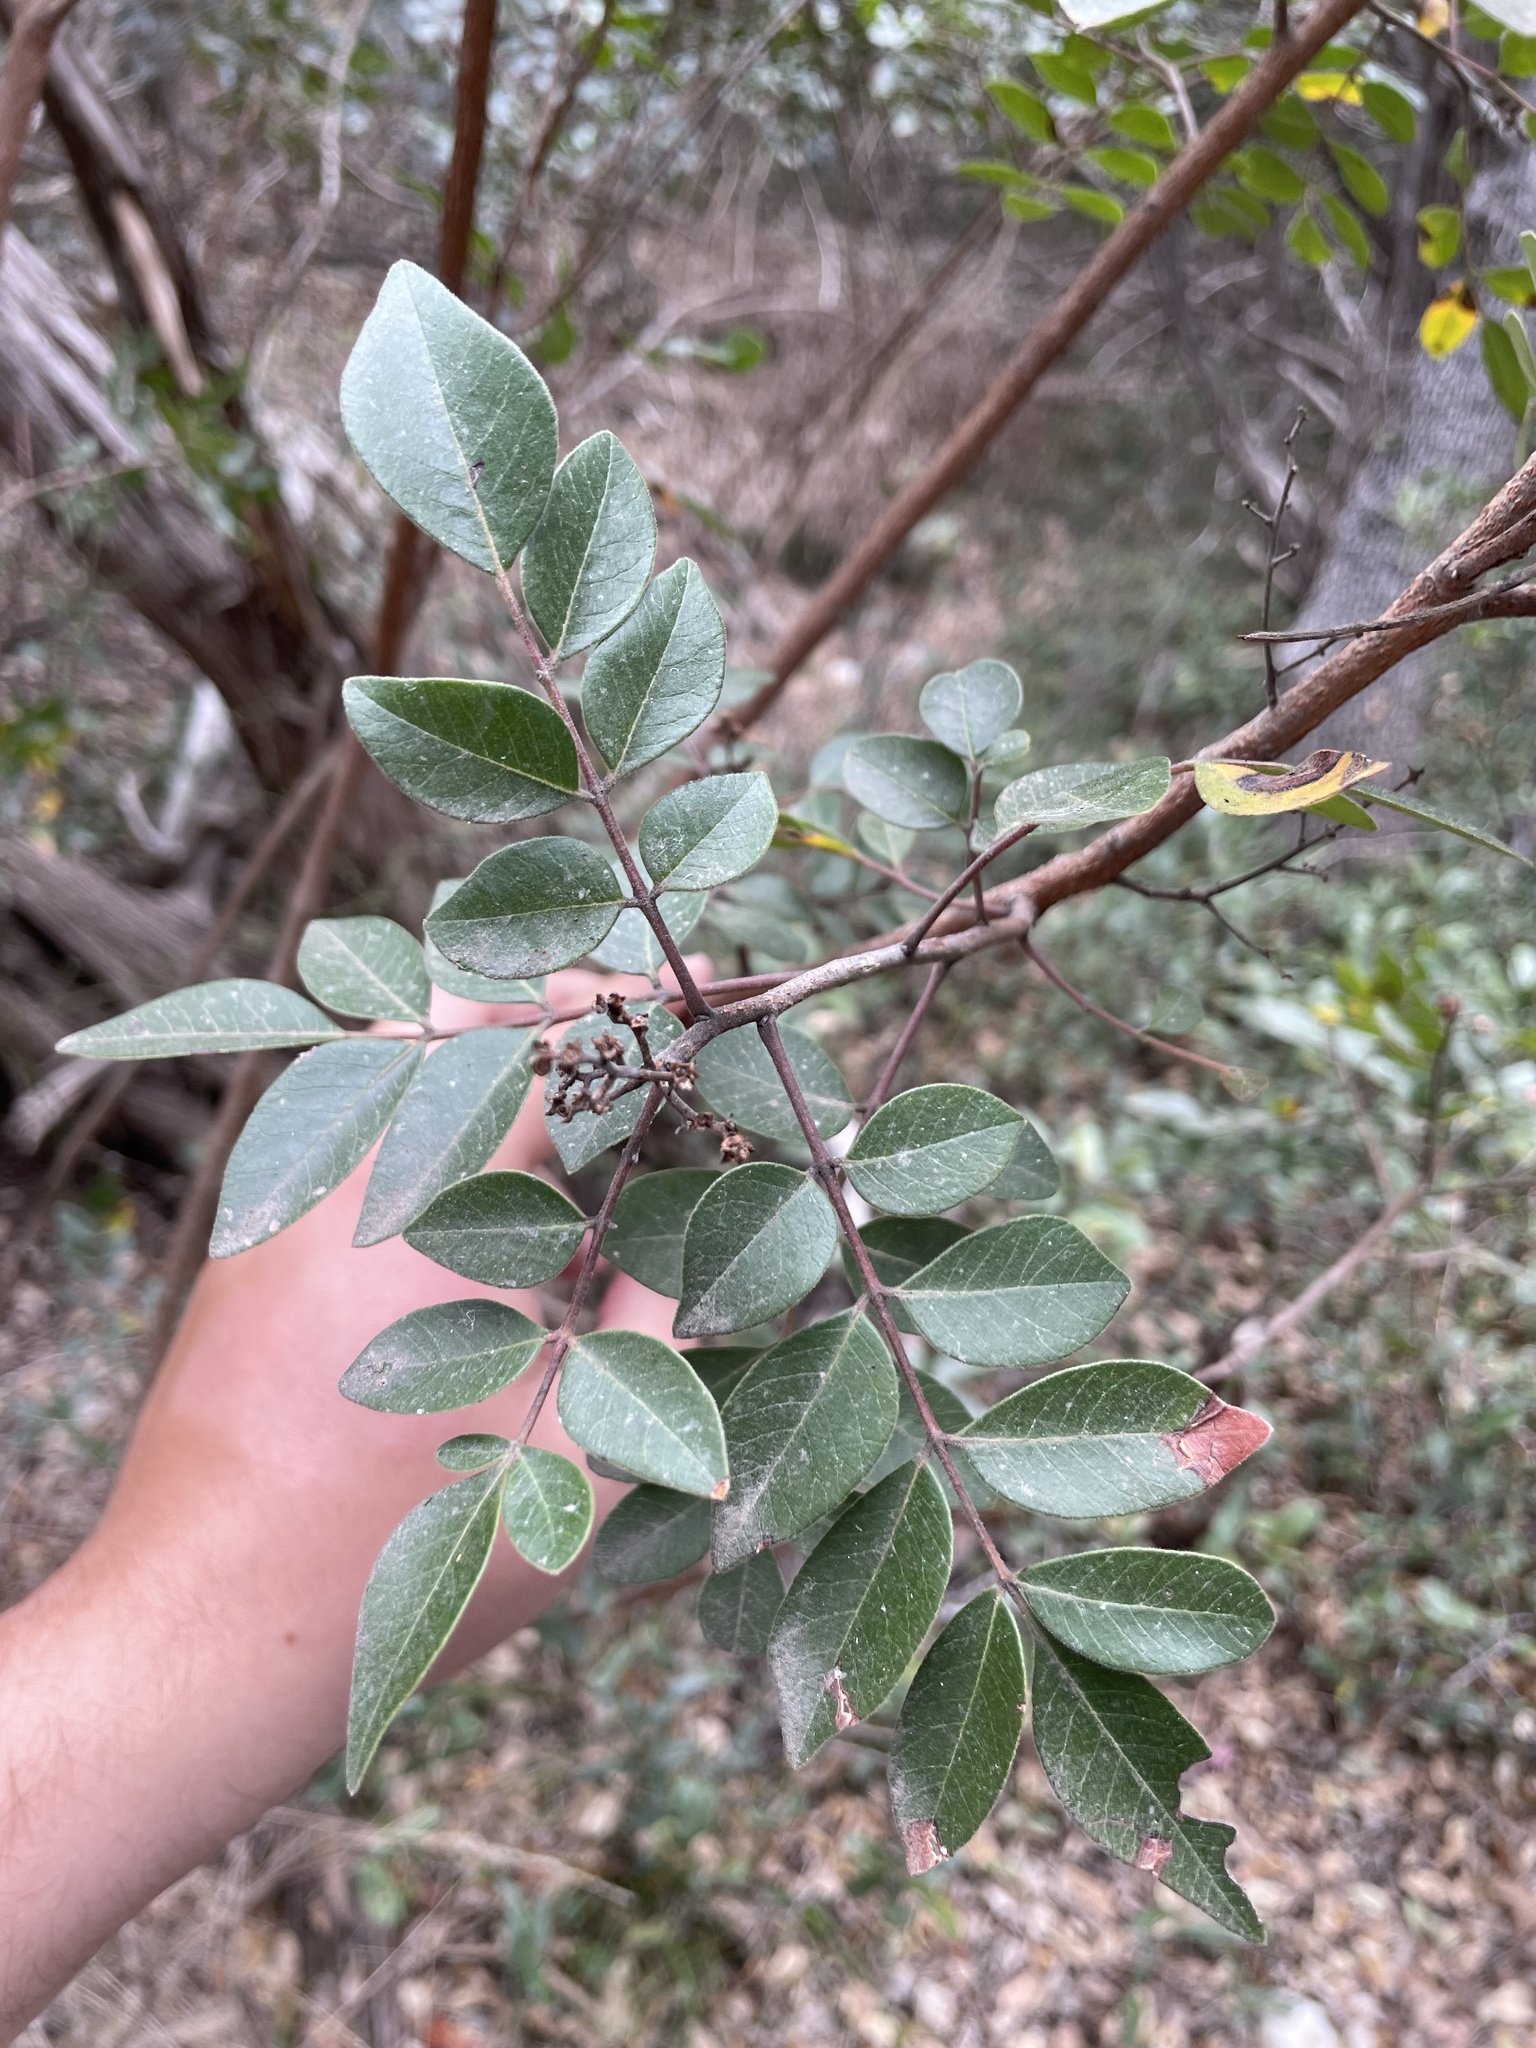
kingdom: Plantae
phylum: Tracheophyta
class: Magnoliopsida
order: Sapindales
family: Anacardiaceae
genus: Rhus
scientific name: Rhus virens
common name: Evergreen sumac
